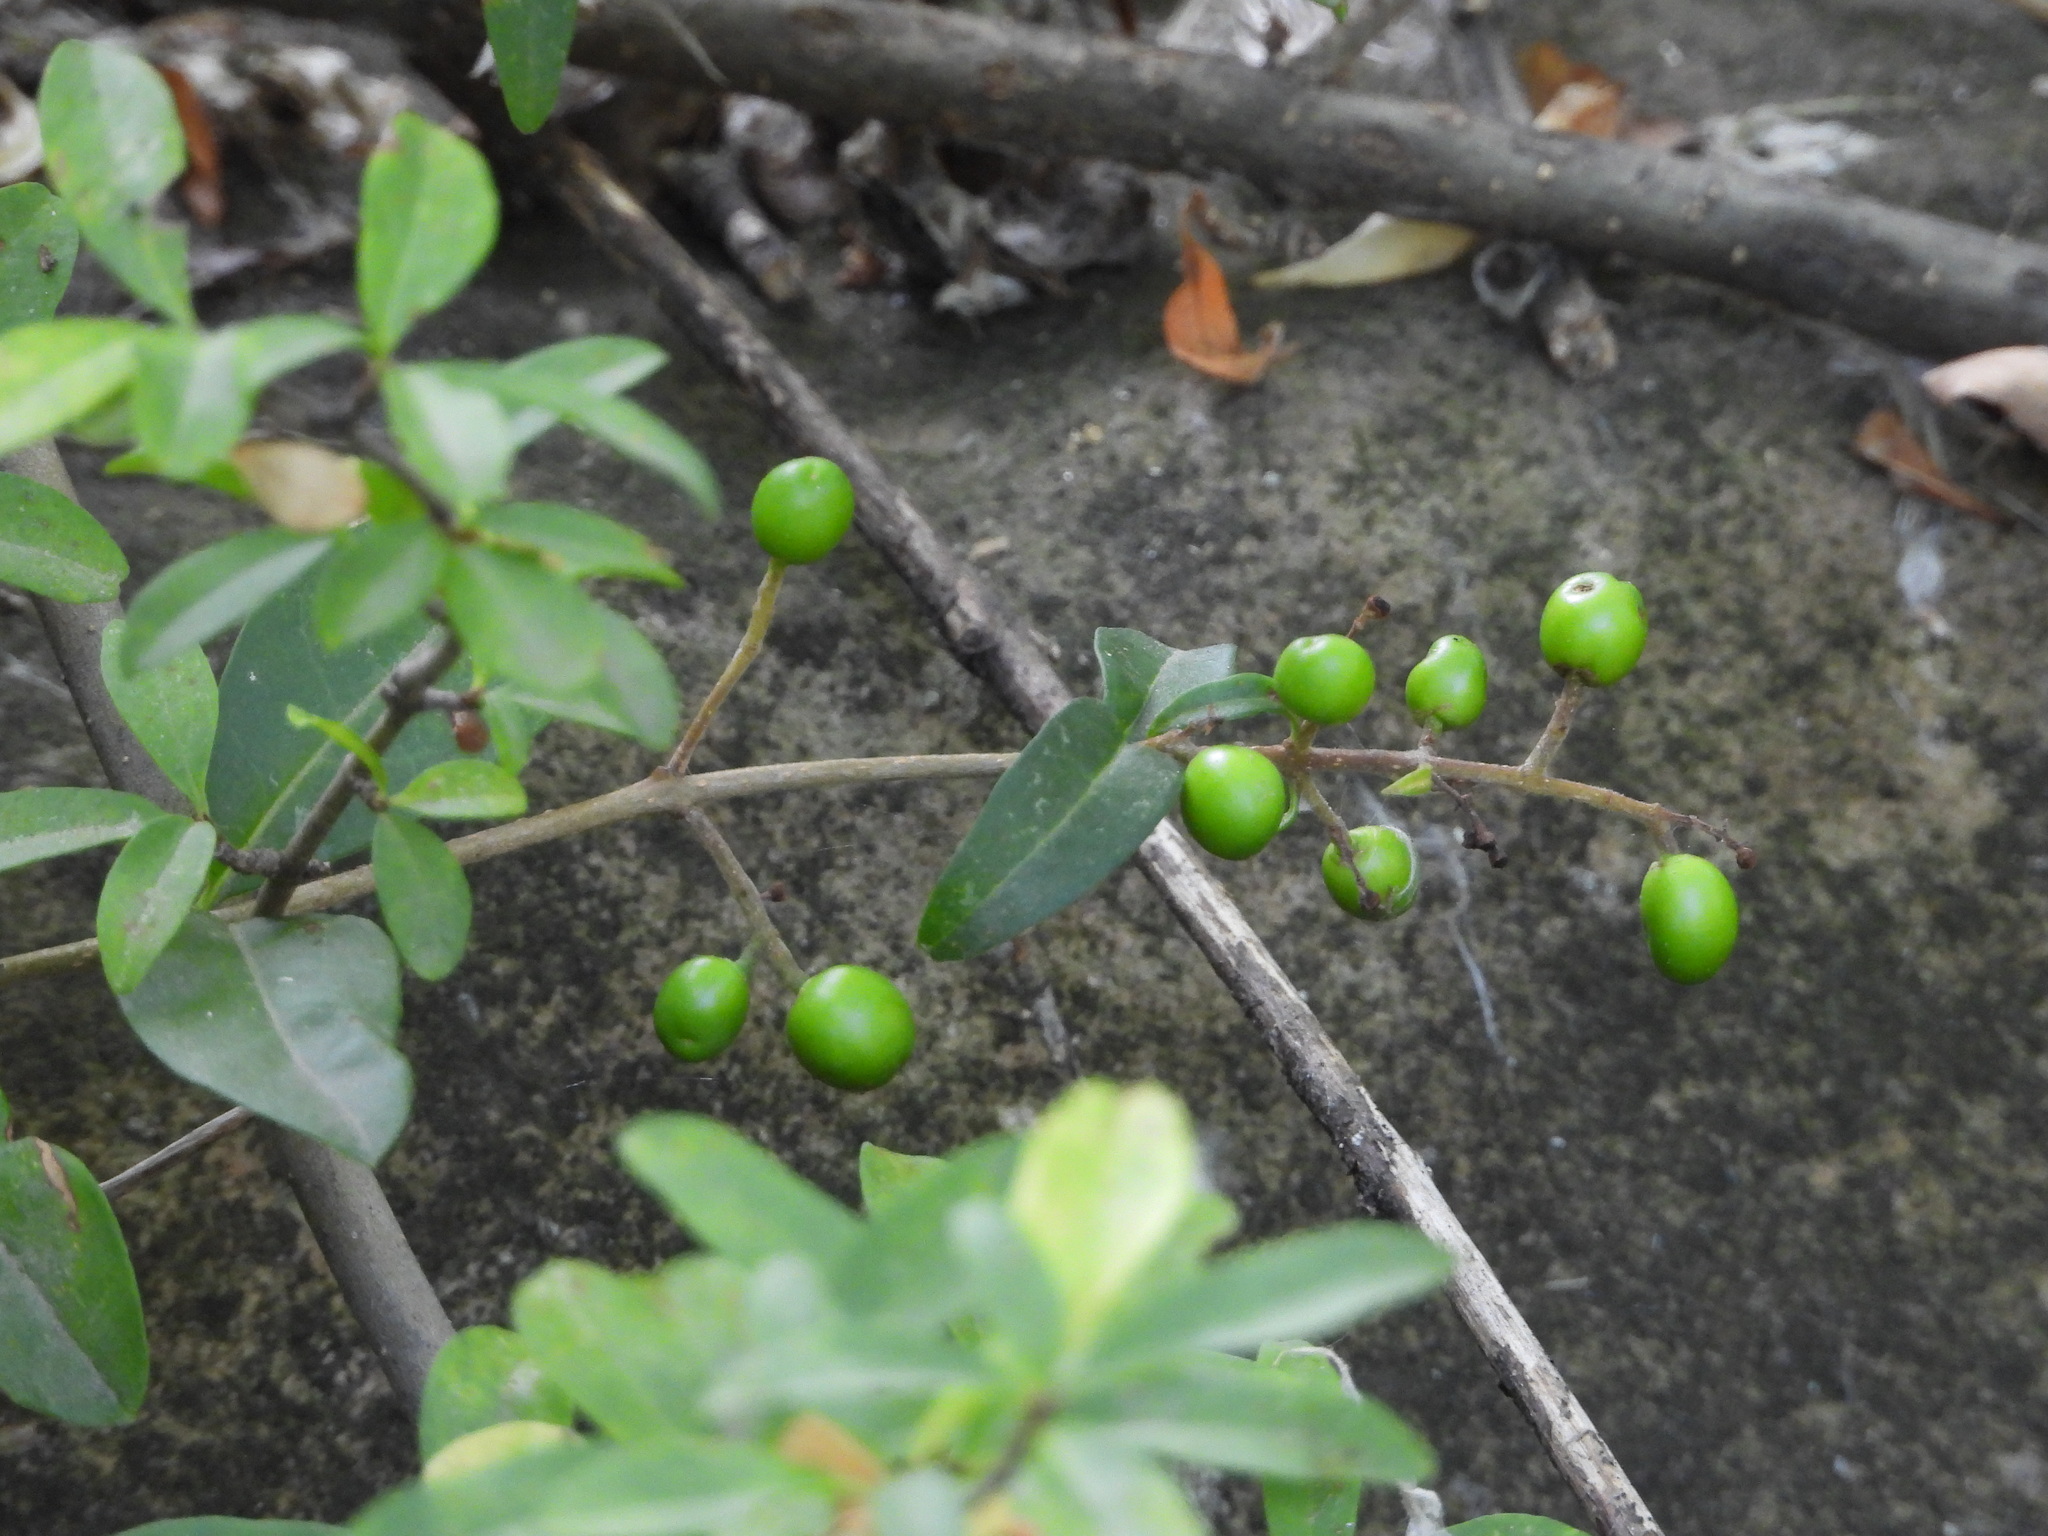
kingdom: Plantae
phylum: Tracheophyta
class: Magnoliopsida
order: Lamiales
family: Oleaceae
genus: Ligustrum
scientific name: Ligustrum vulgare
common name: Wild privet
